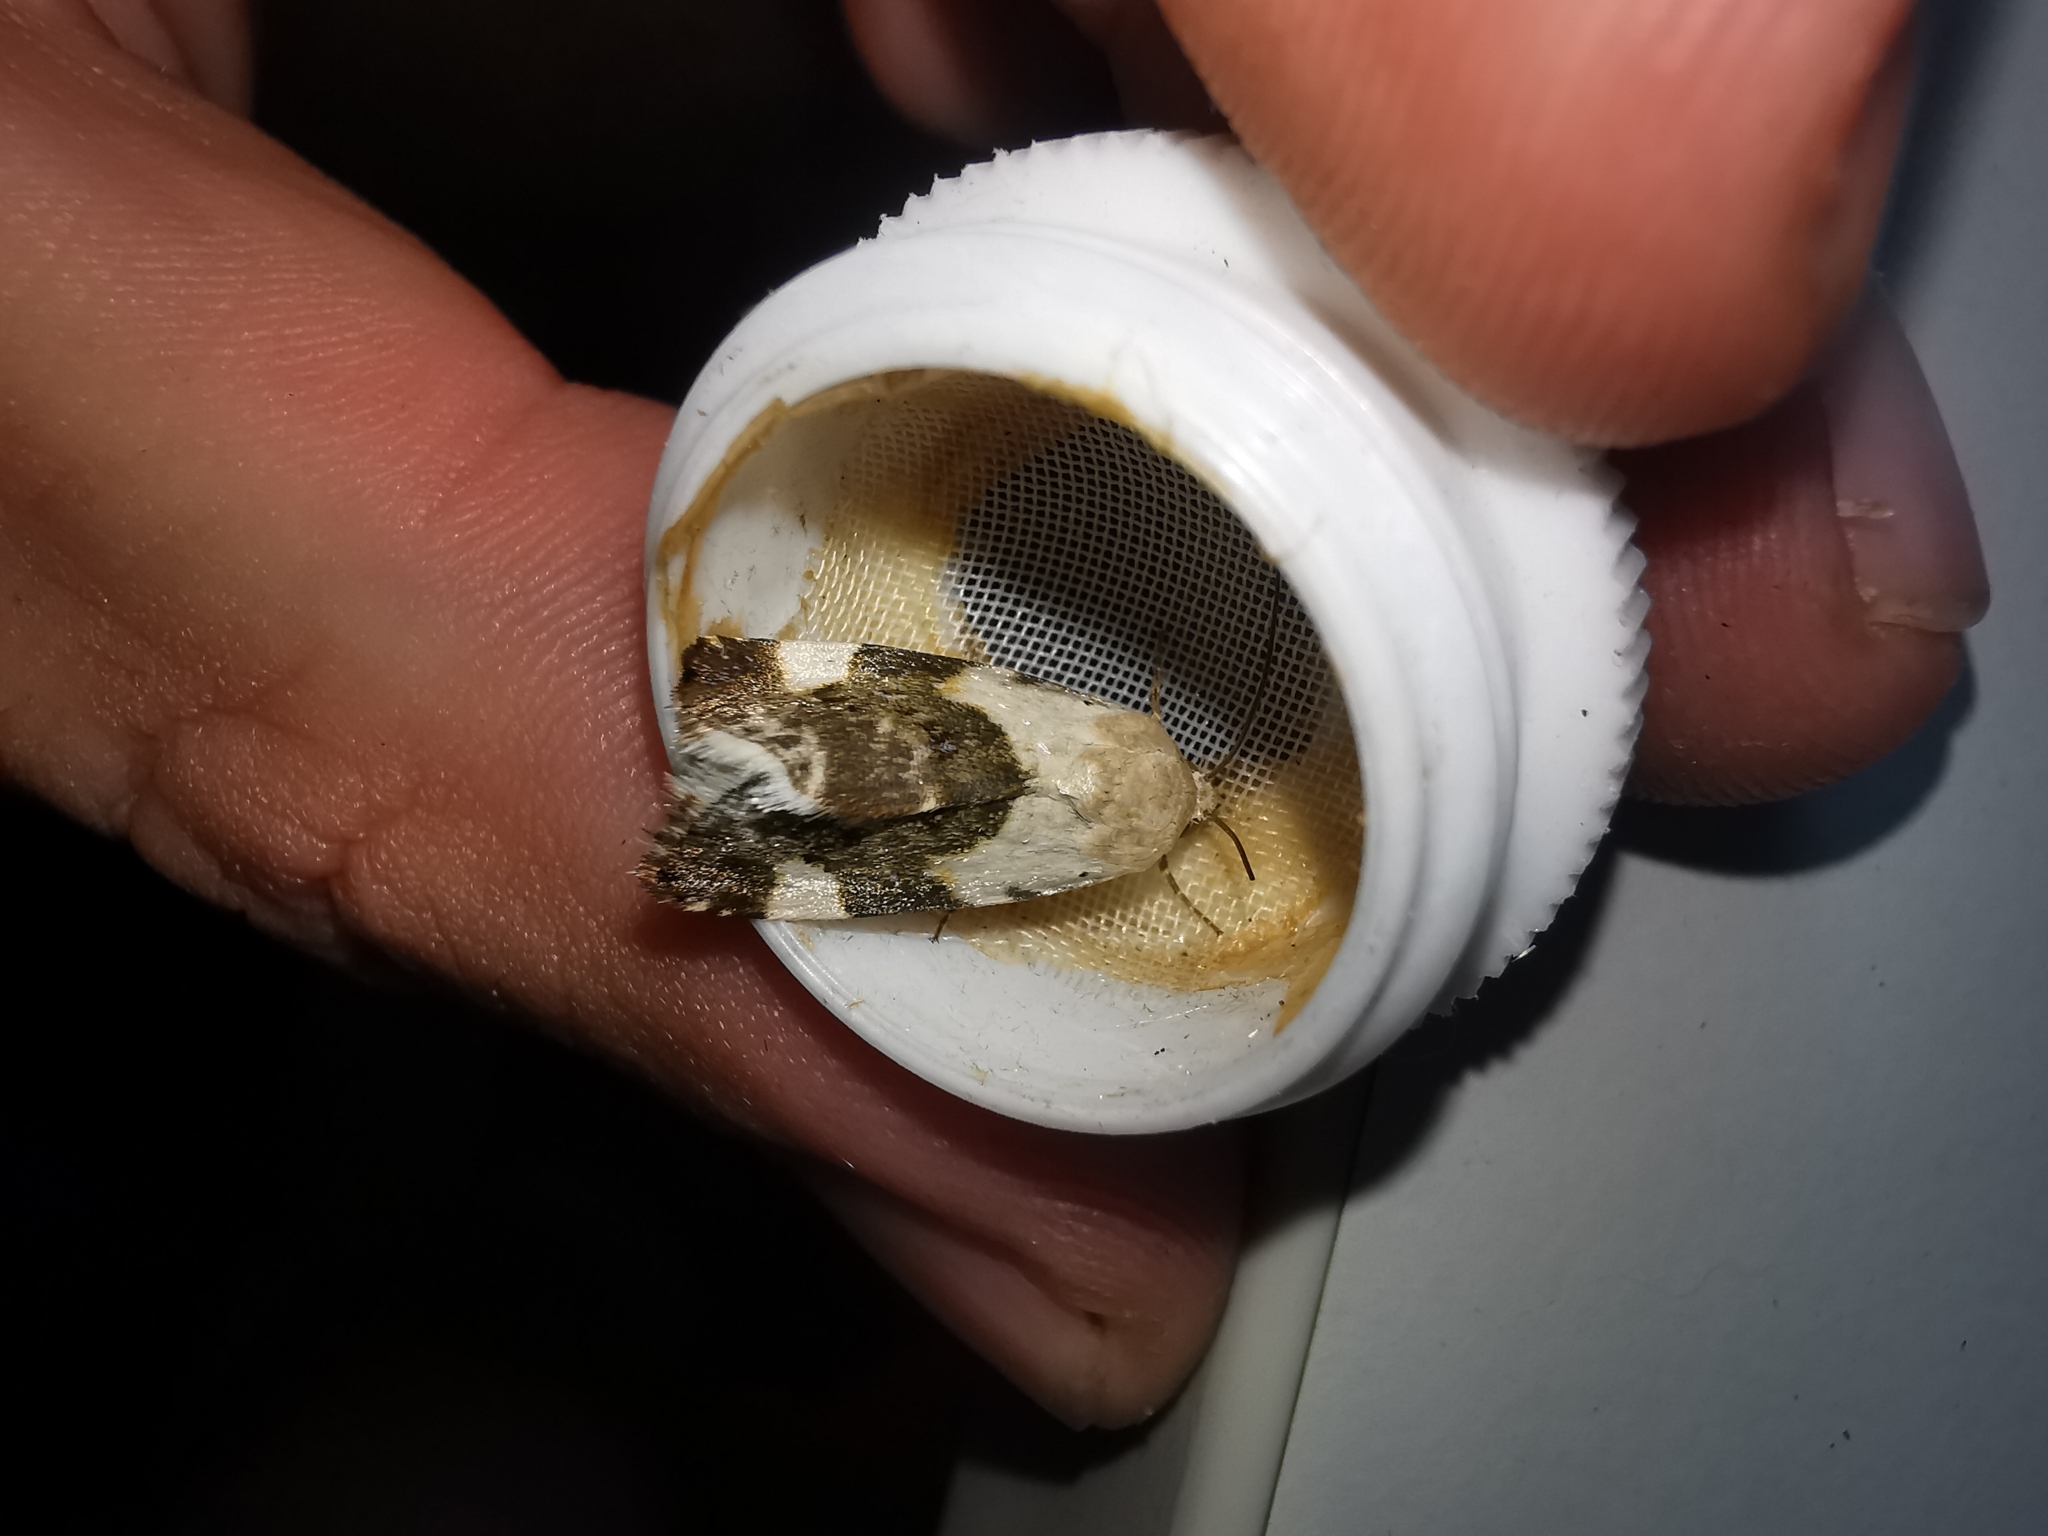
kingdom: Animalia
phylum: Arthropoda
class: Insecta
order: Lepidoptera
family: Noctuidae
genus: Acontia
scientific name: Acontia lucida
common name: Pale shoulder
